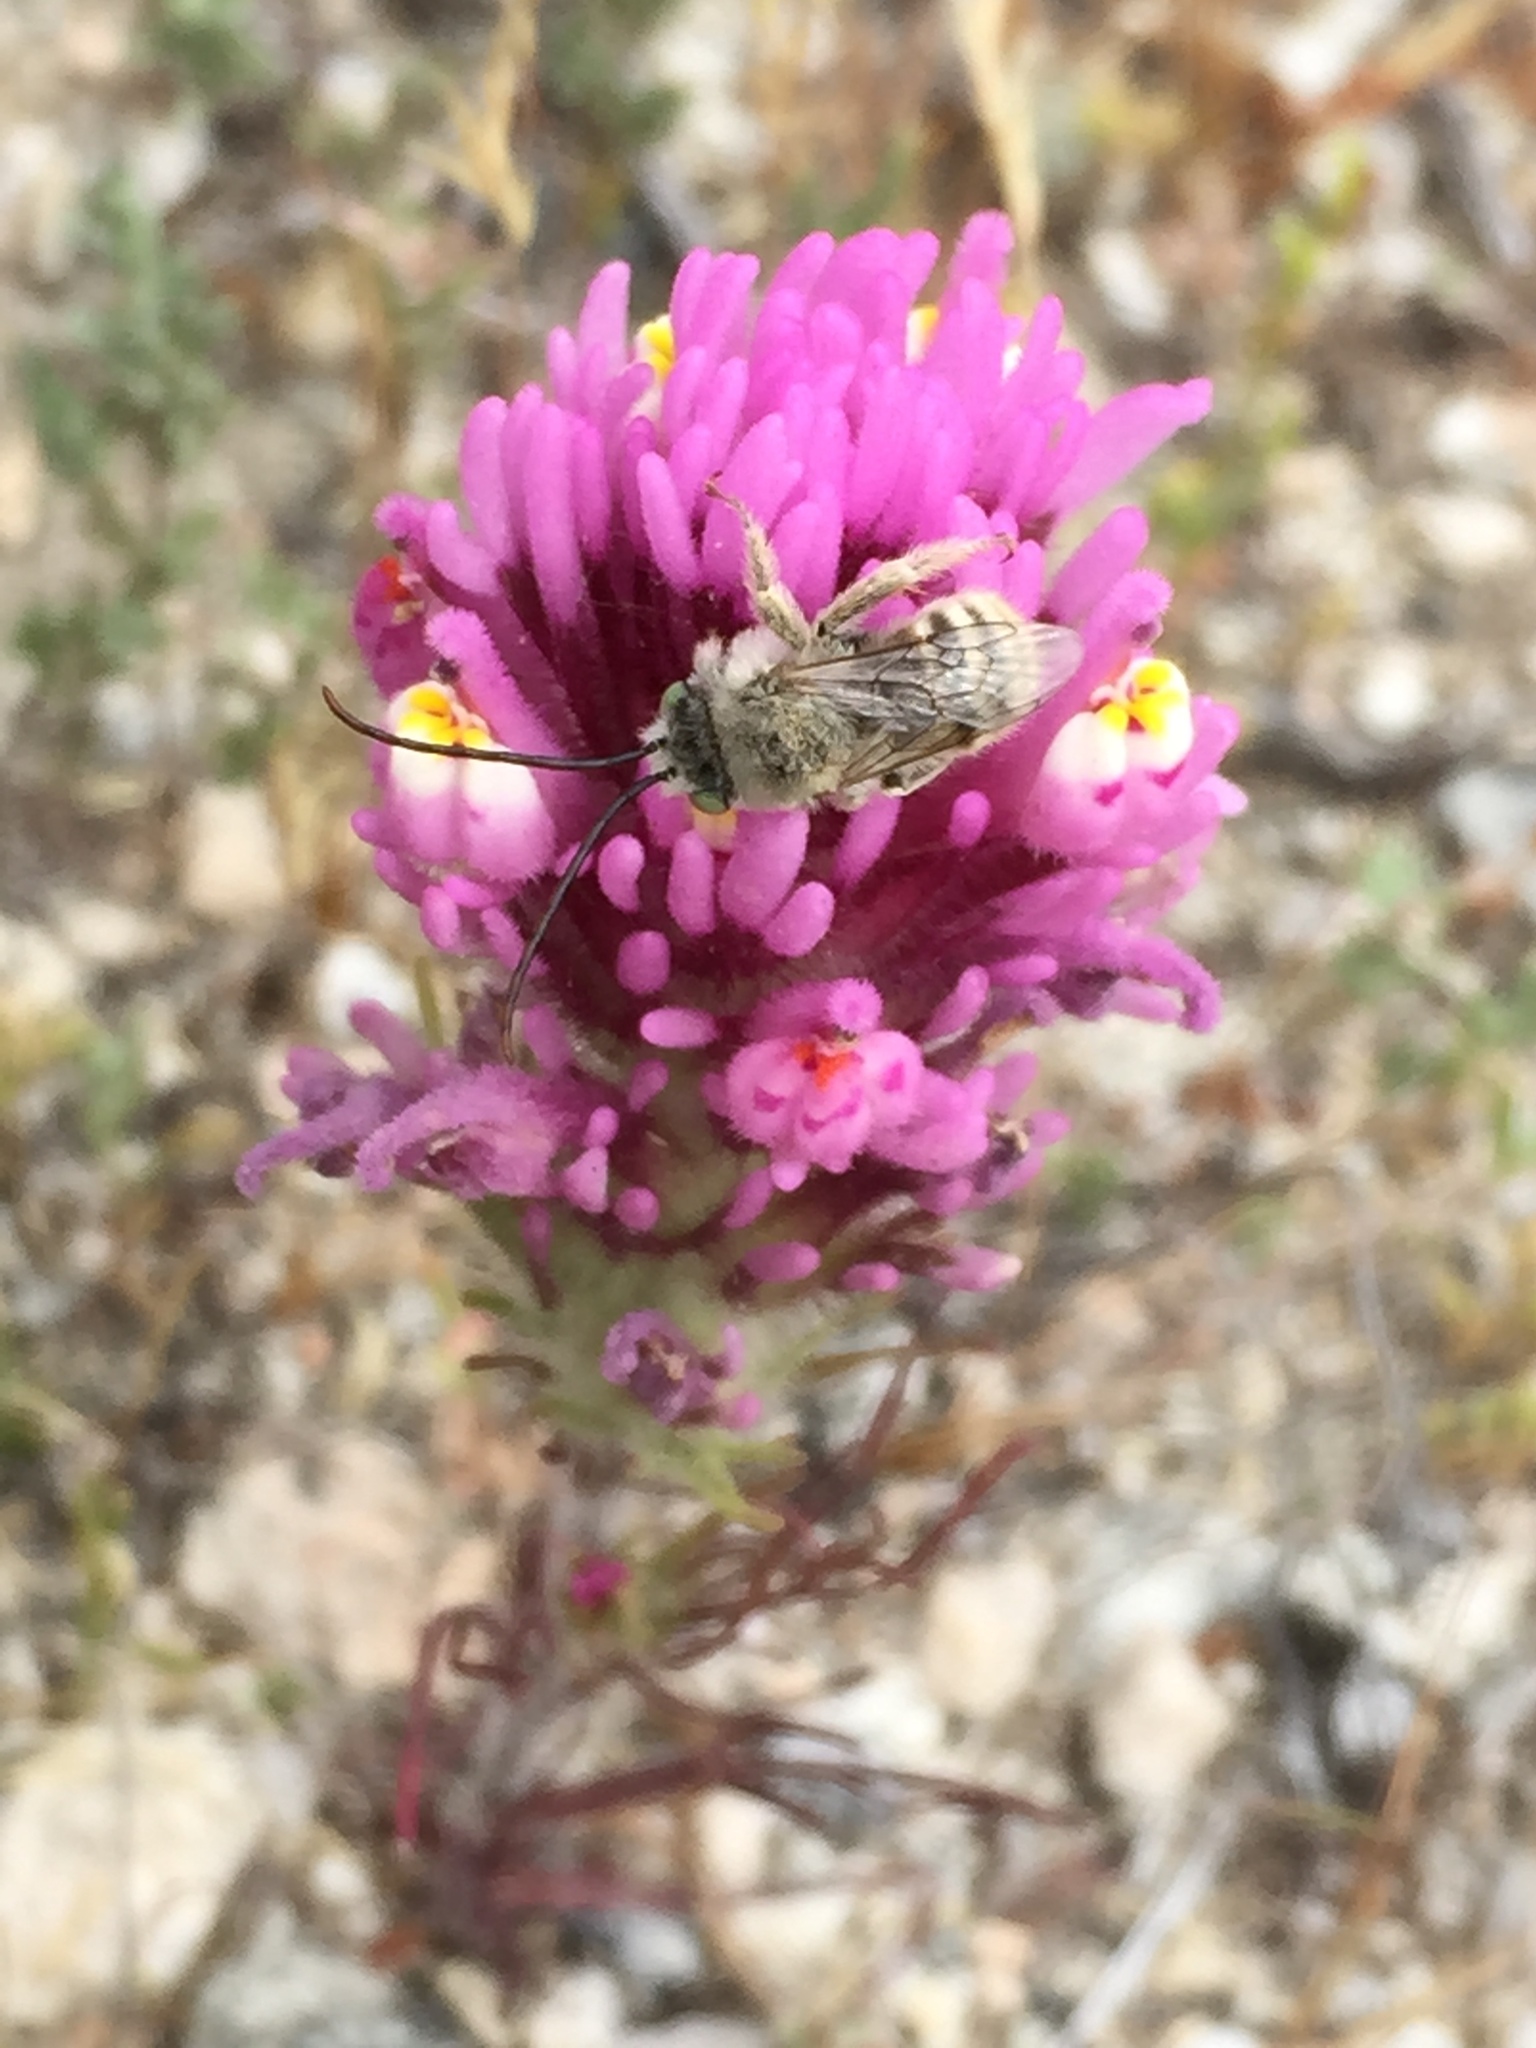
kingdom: Plantae
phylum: Tracheophyta
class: Magnoliopsida
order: Lamiales
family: Orobanchaceae
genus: Castilleja
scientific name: Castilleja exserta
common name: Purple owl-clover
